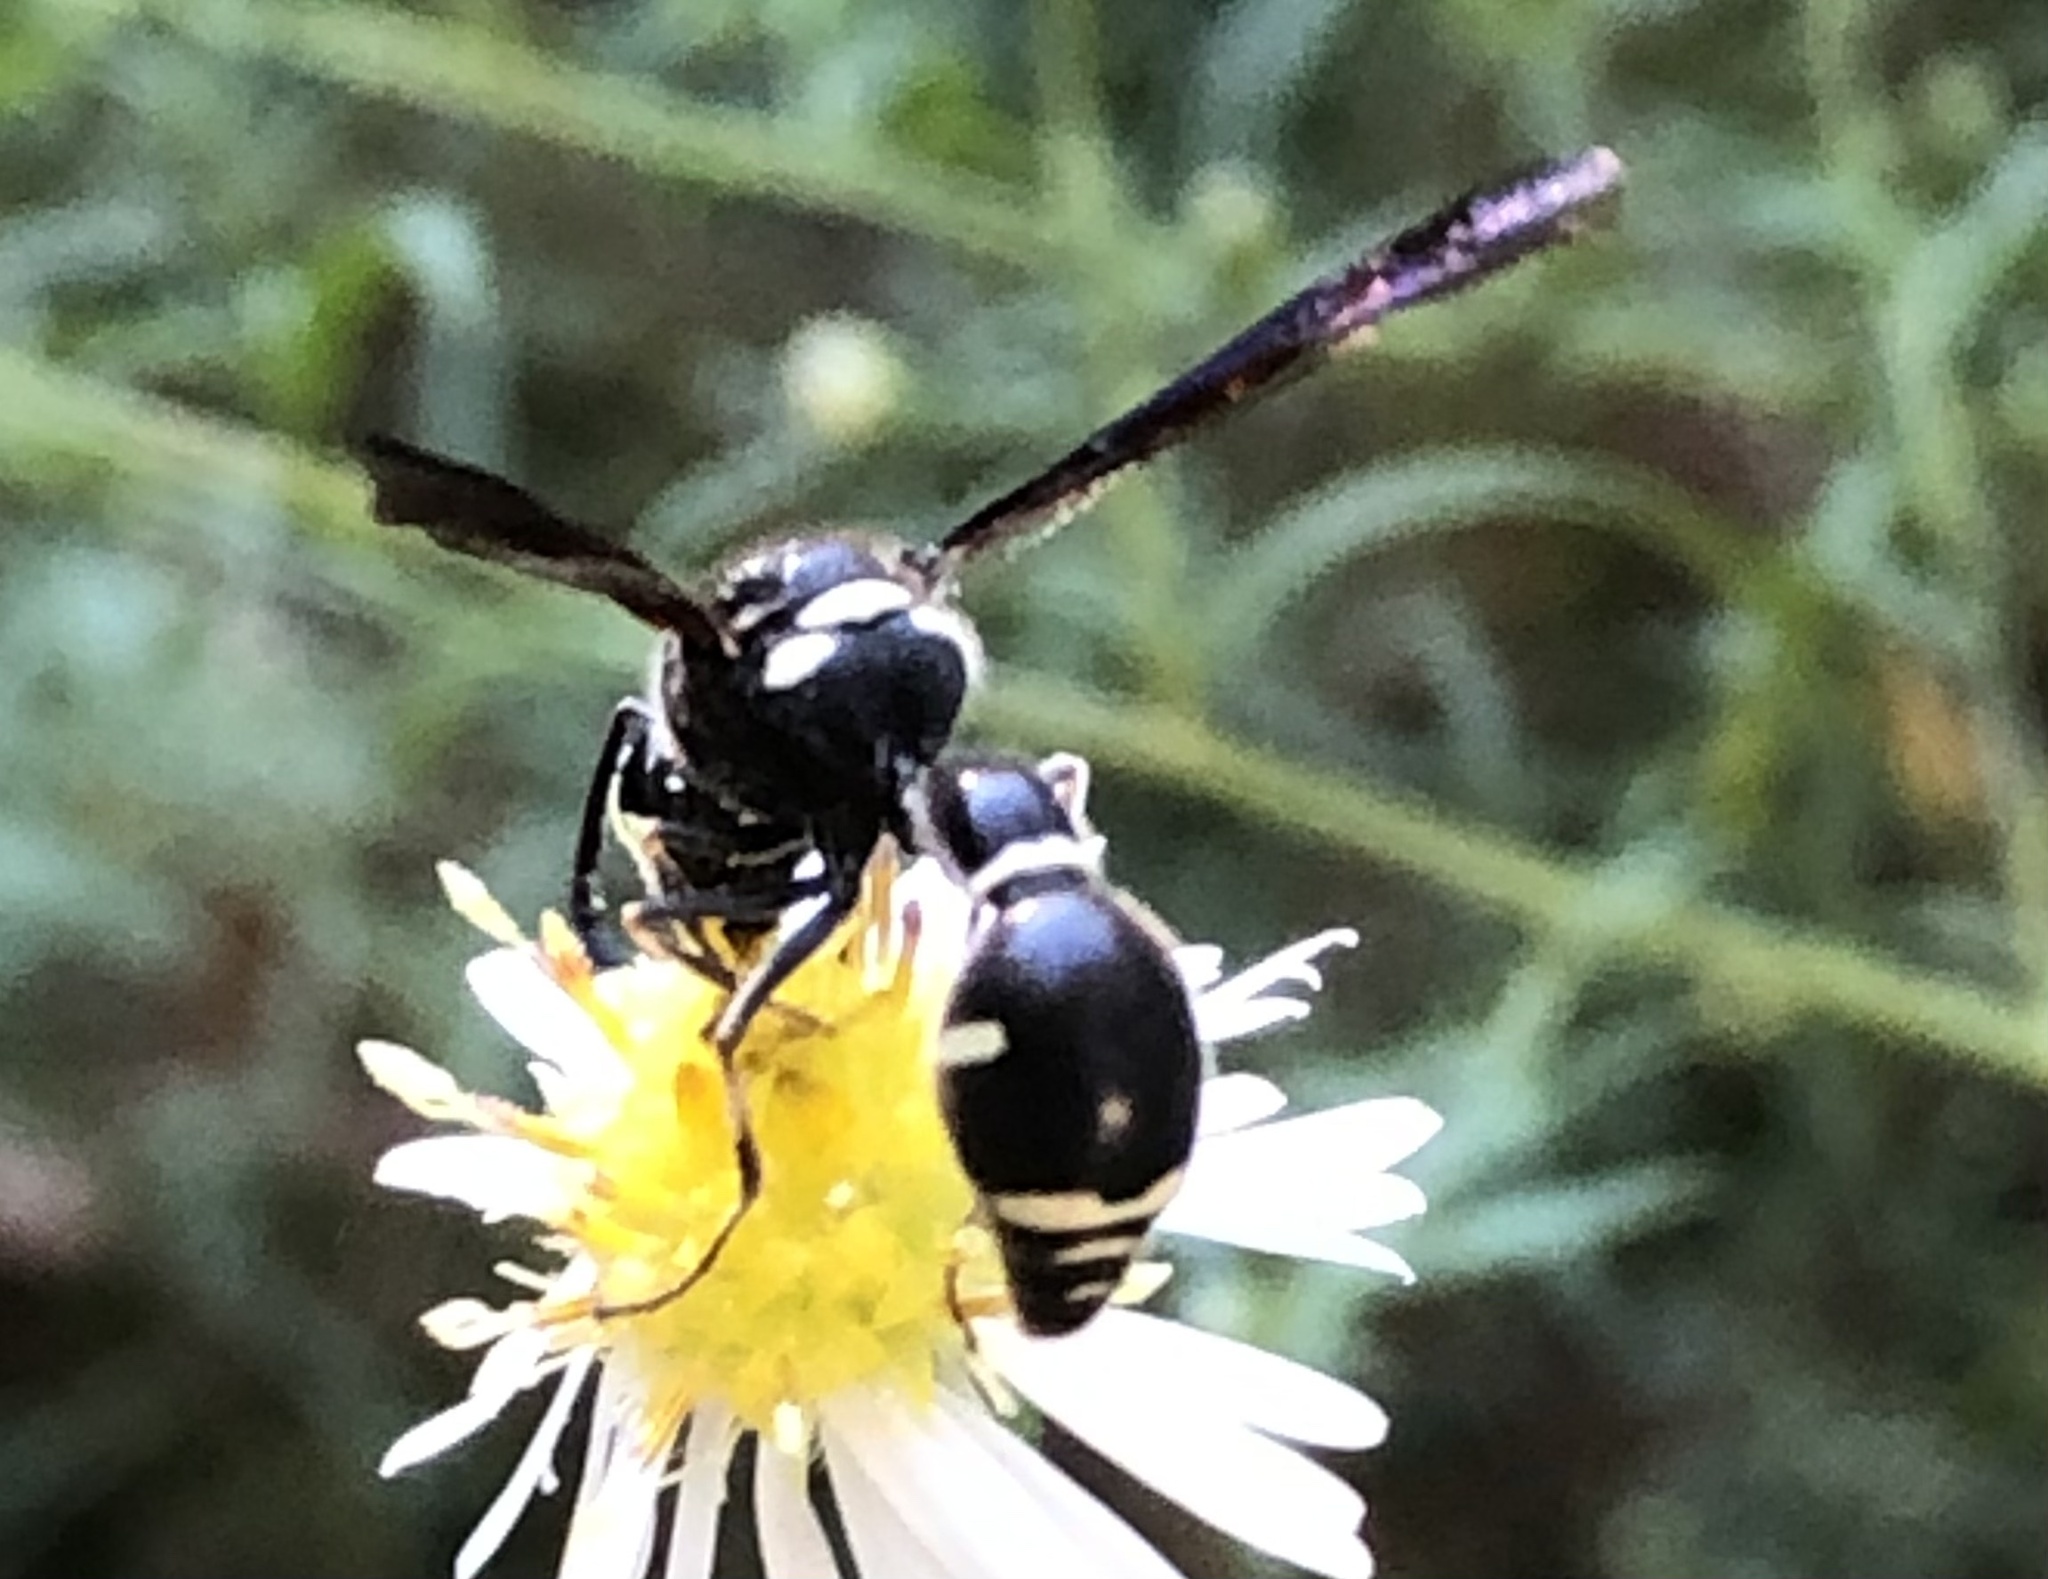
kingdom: Animalia
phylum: Arthropoda
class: Insecta
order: Hymenoptera
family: Vespidae
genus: Eumenes
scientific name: Eumenes fraternus
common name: Fraternal potter wasp
